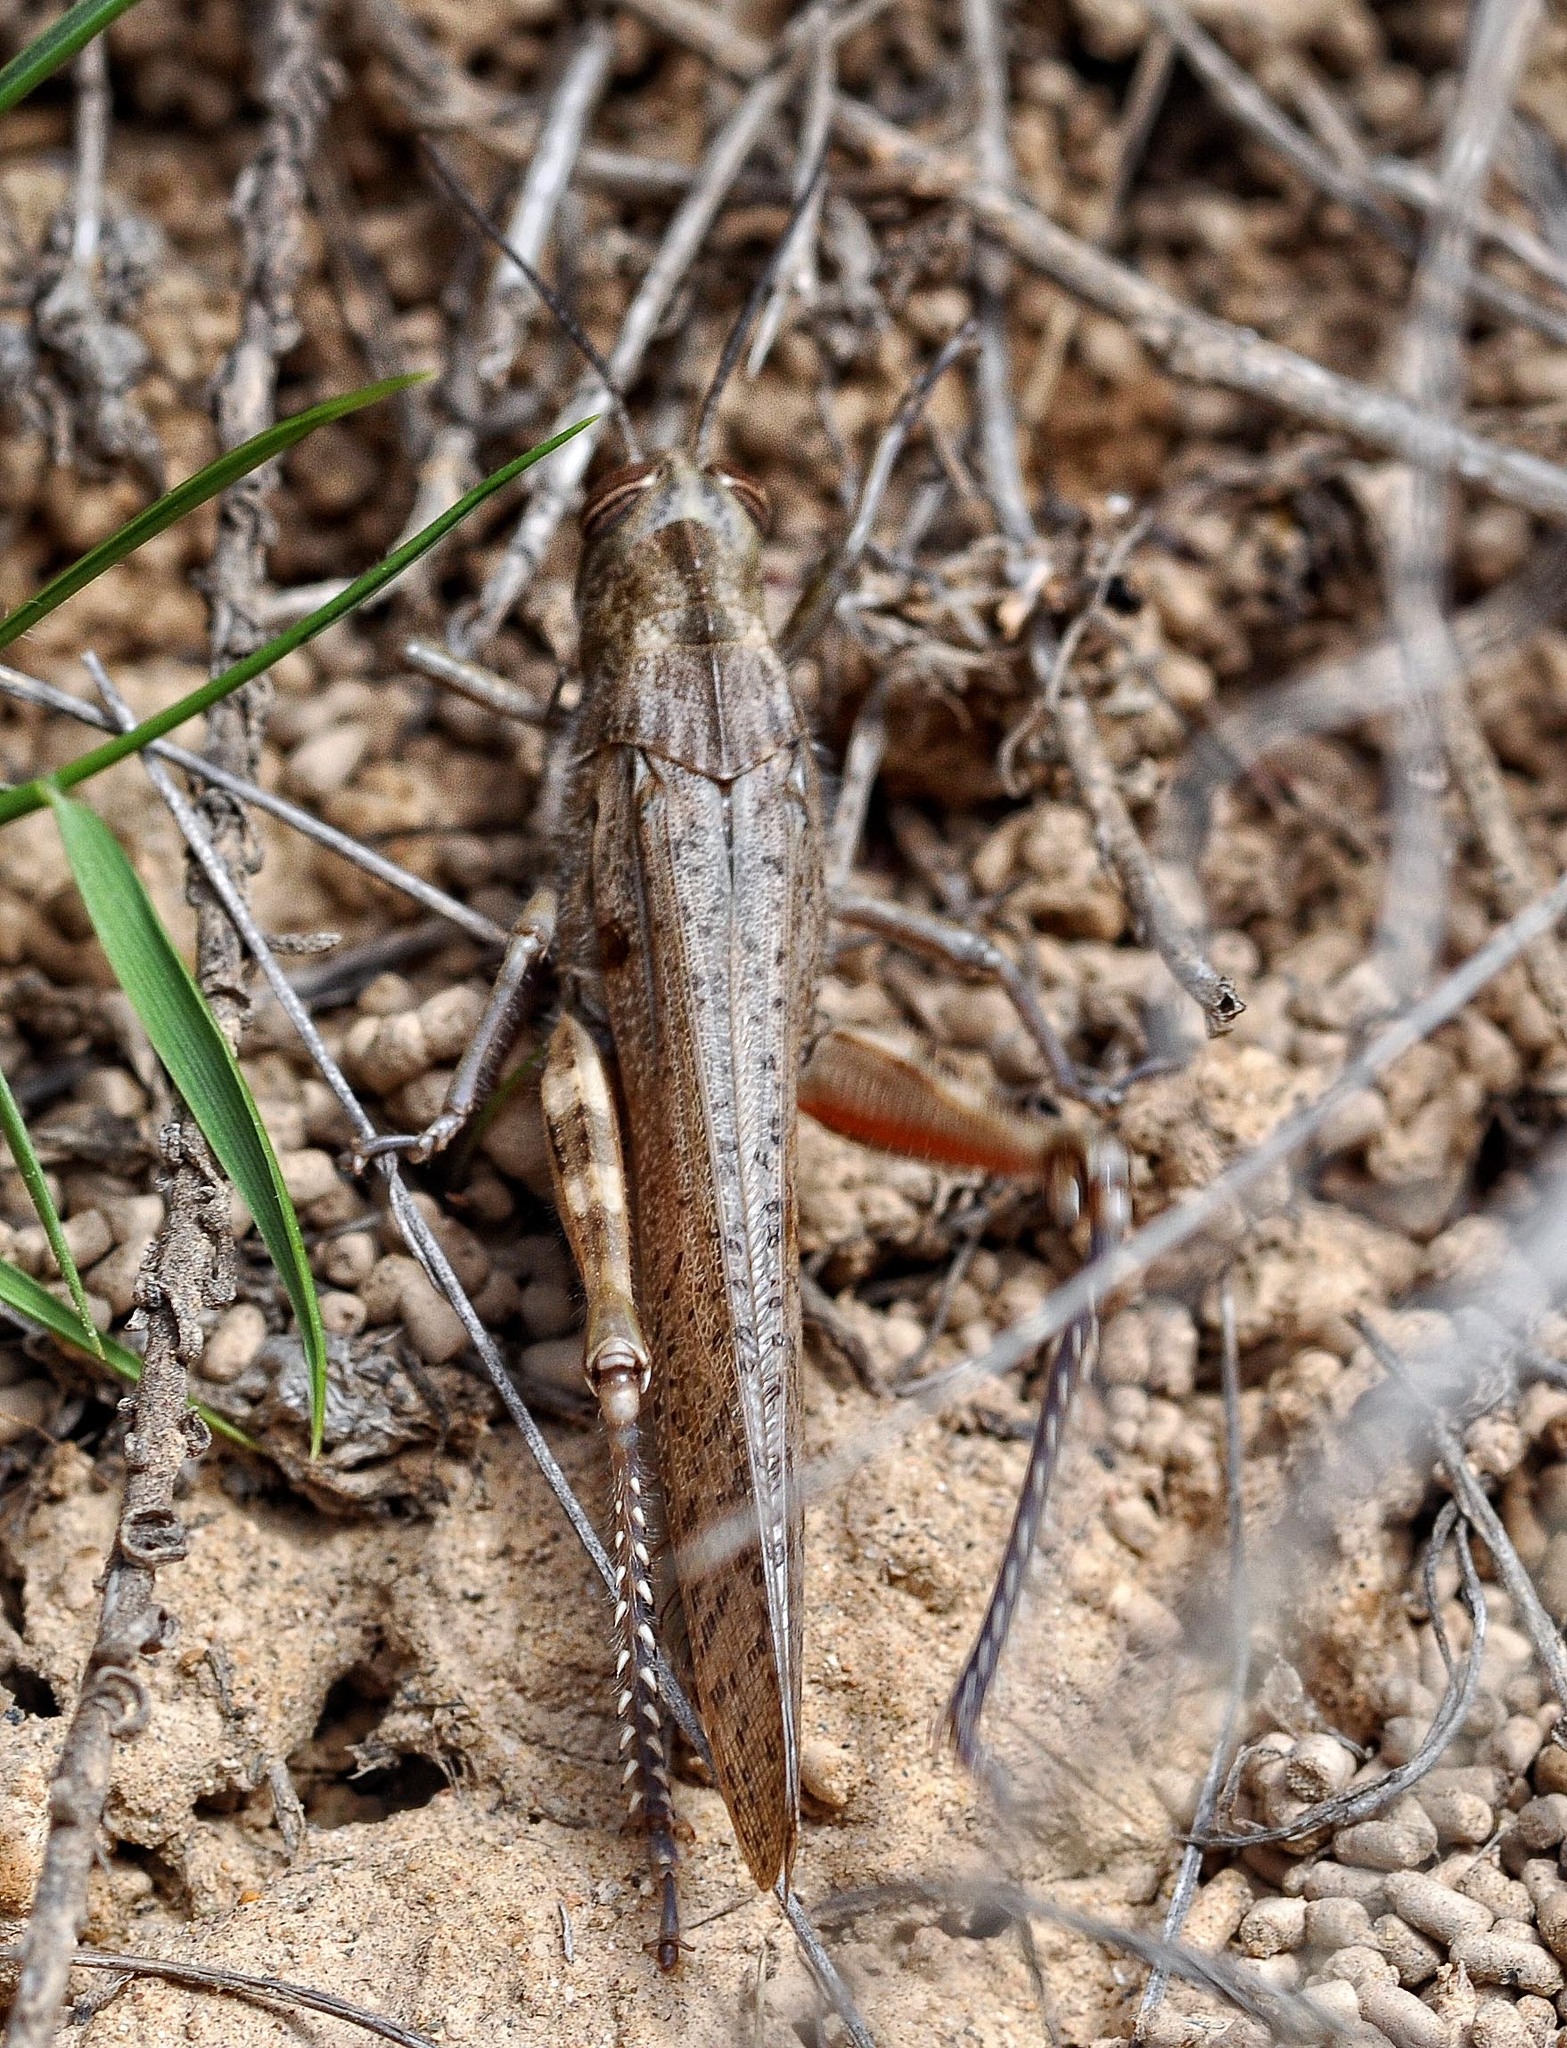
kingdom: Animalia
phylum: Arthropoda
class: Insecta
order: Orthoptera
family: Acrididae
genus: Anacridium
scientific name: Anacridium aegyptium
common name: Egyptian grasshopper
